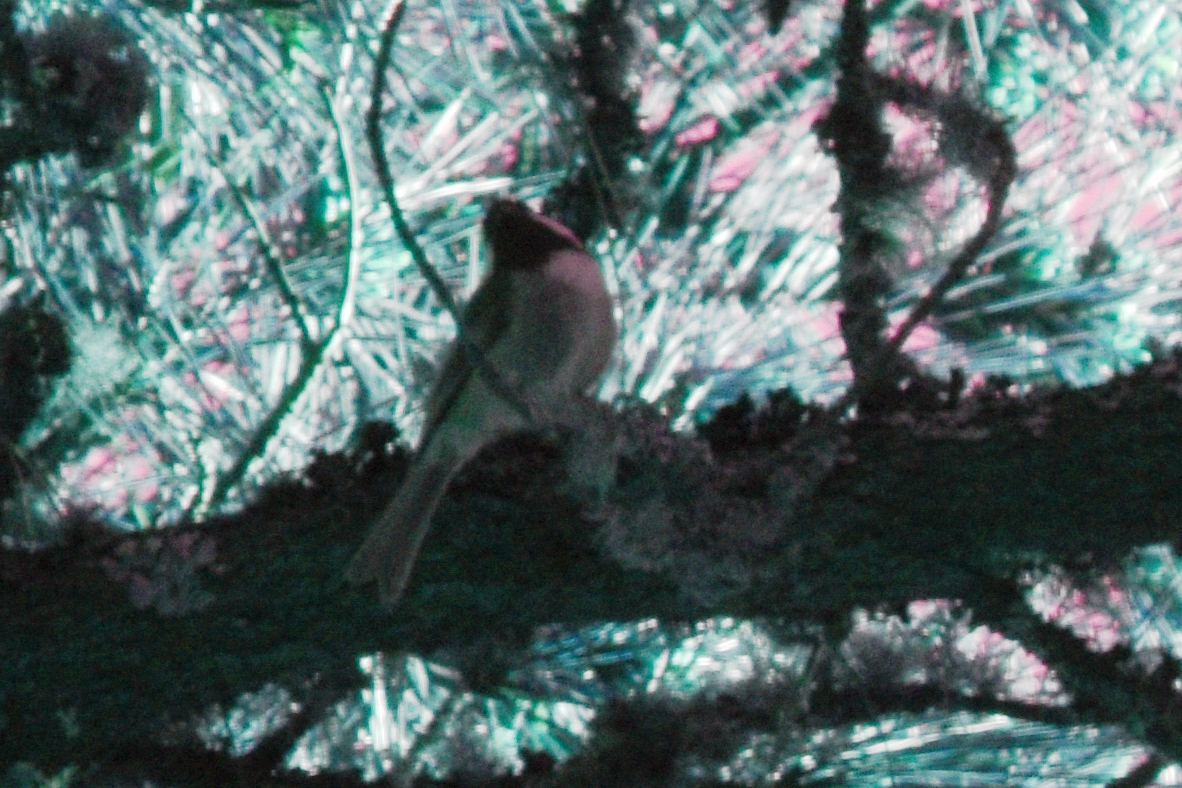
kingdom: Animalia
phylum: Chordata
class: Aves
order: Passeriformes
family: Paridae
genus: Poecile
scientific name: Poecile rufescens
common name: Chestnut-backed chickadee
